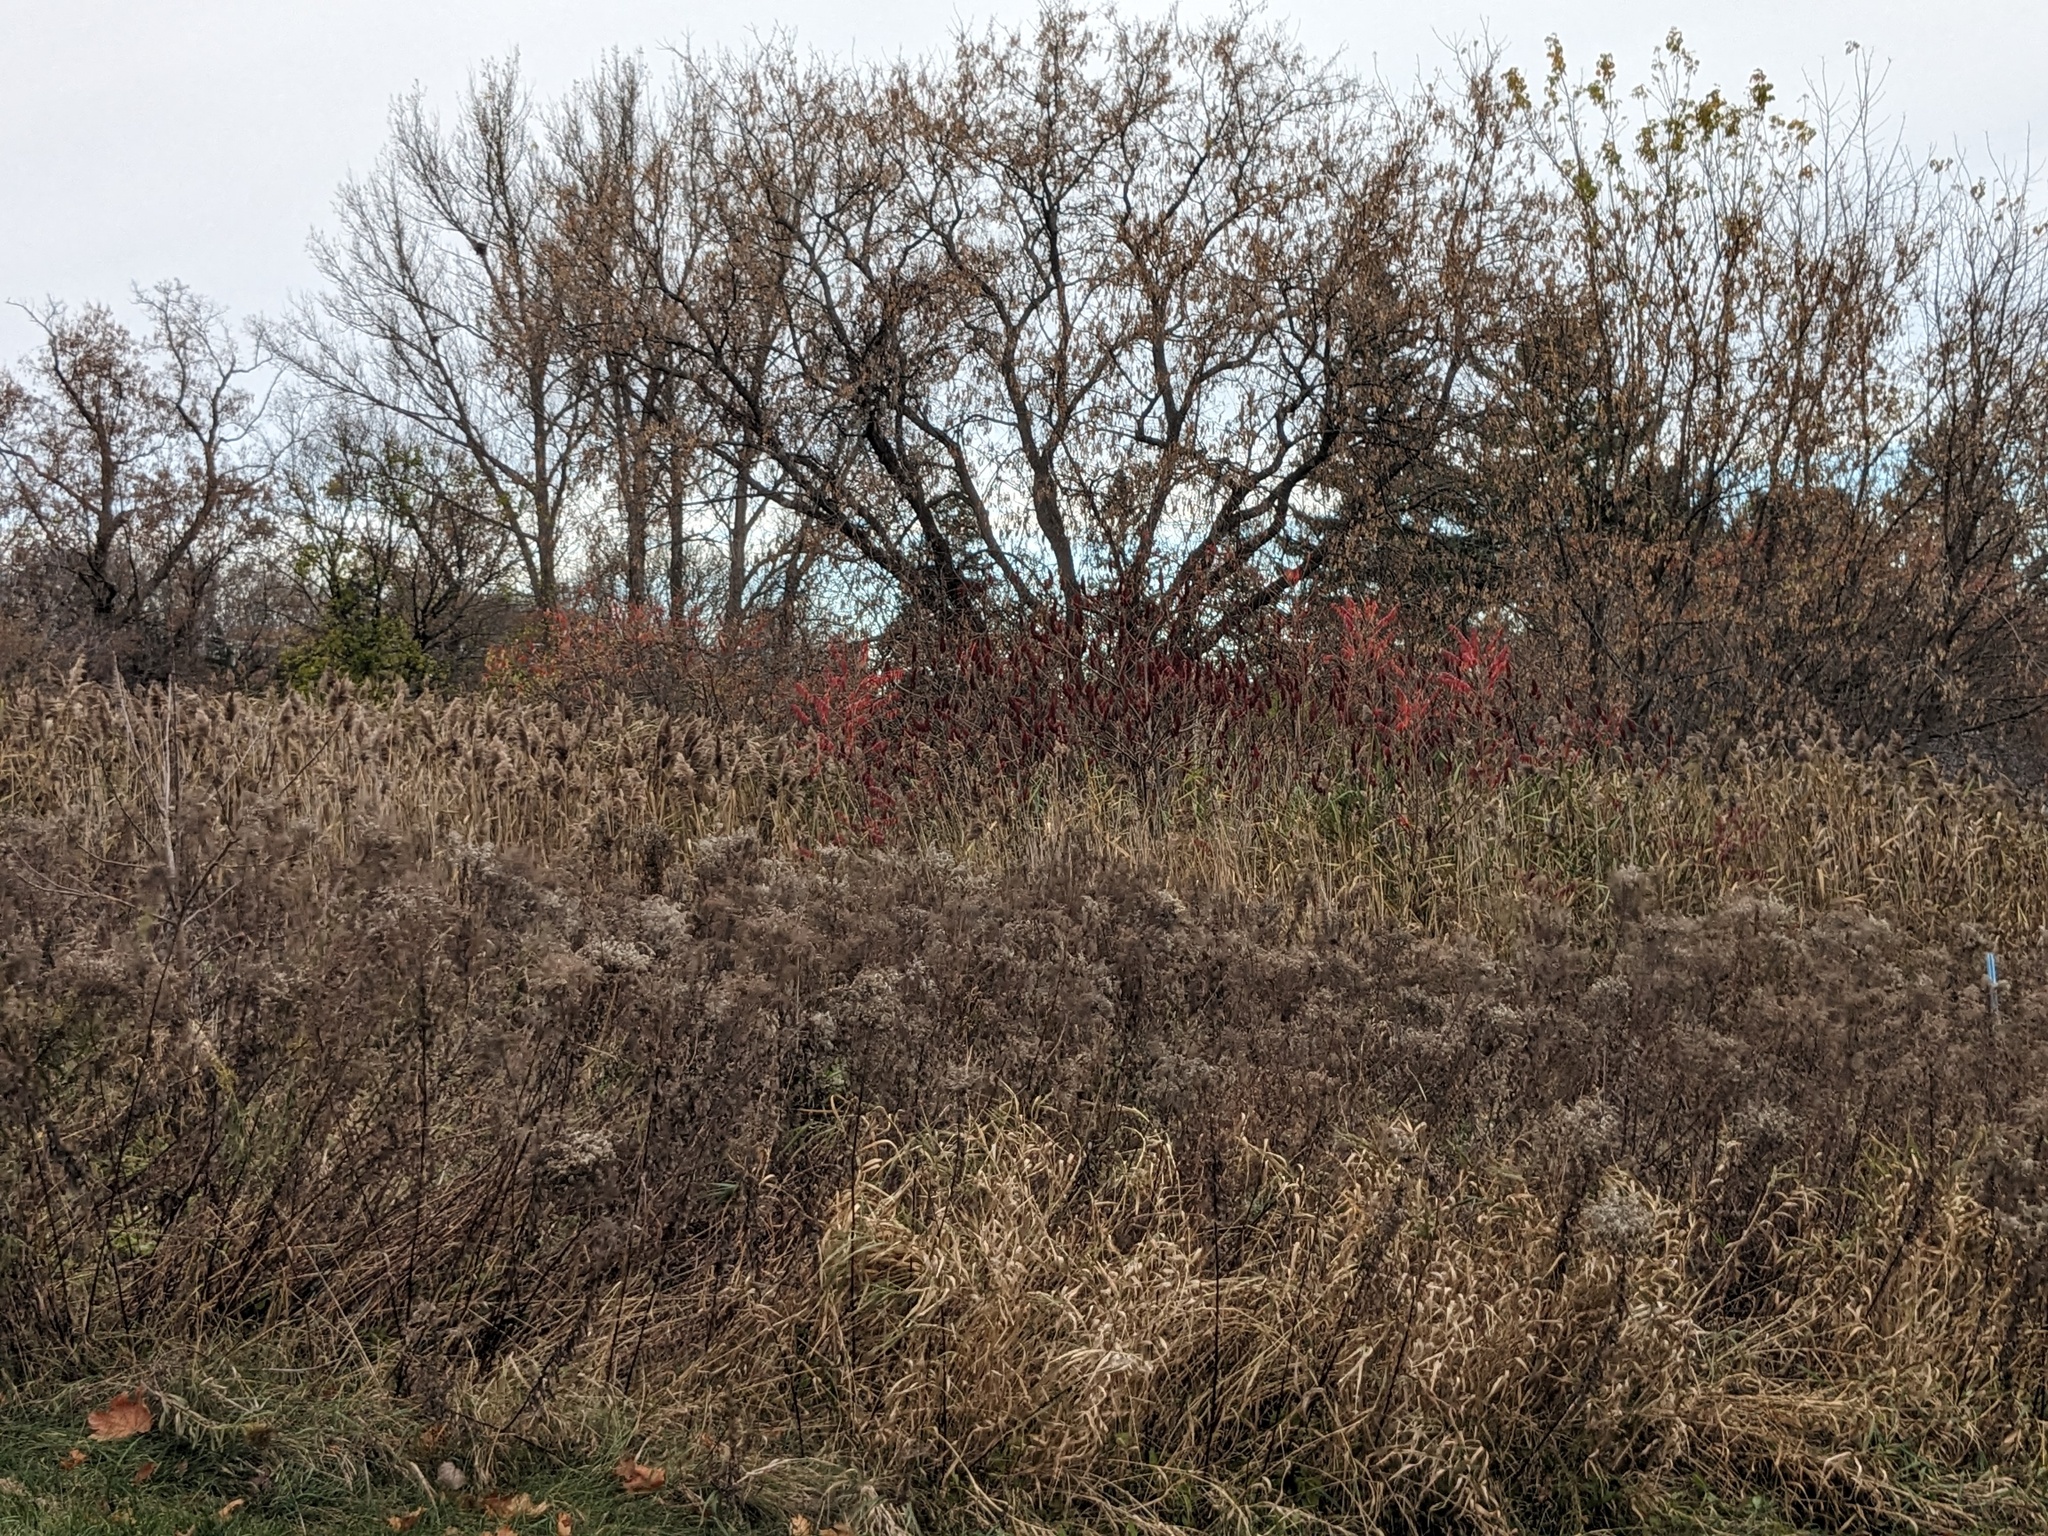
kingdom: Plantae
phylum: Tracheophyta
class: Liliopsida
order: Poales
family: Poaceae
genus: Phragmites
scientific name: Phragmites australis
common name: Common reed
